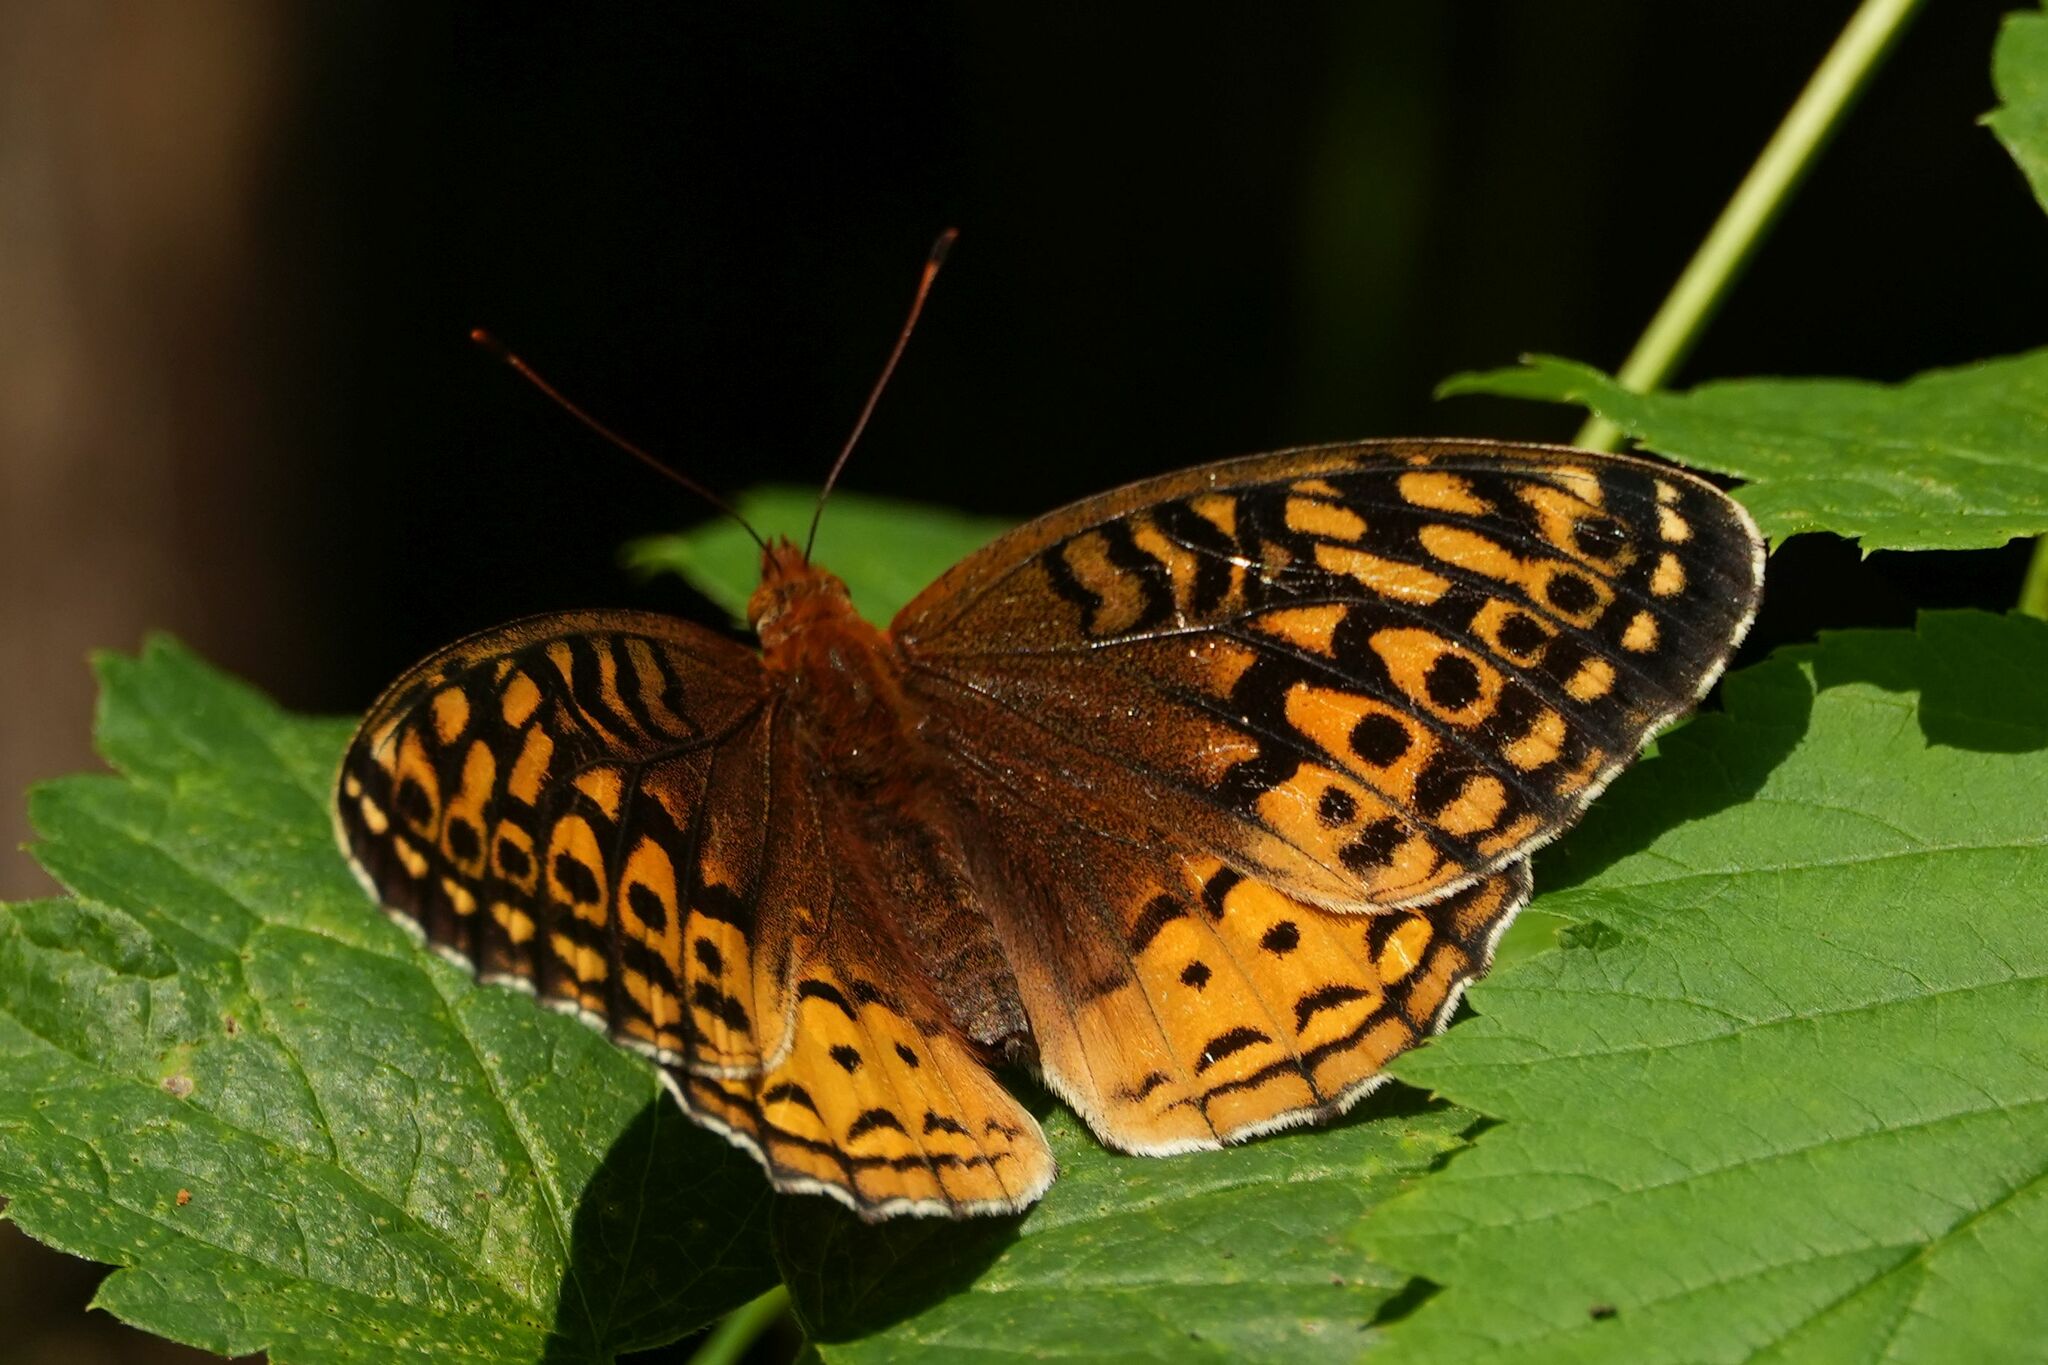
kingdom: Animalia
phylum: Arthropoda
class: Insecta
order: Lepidoptera
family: Nymphalidae
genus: Speyeria
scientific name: Speyeria cybele
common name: Great spangled fritillary
